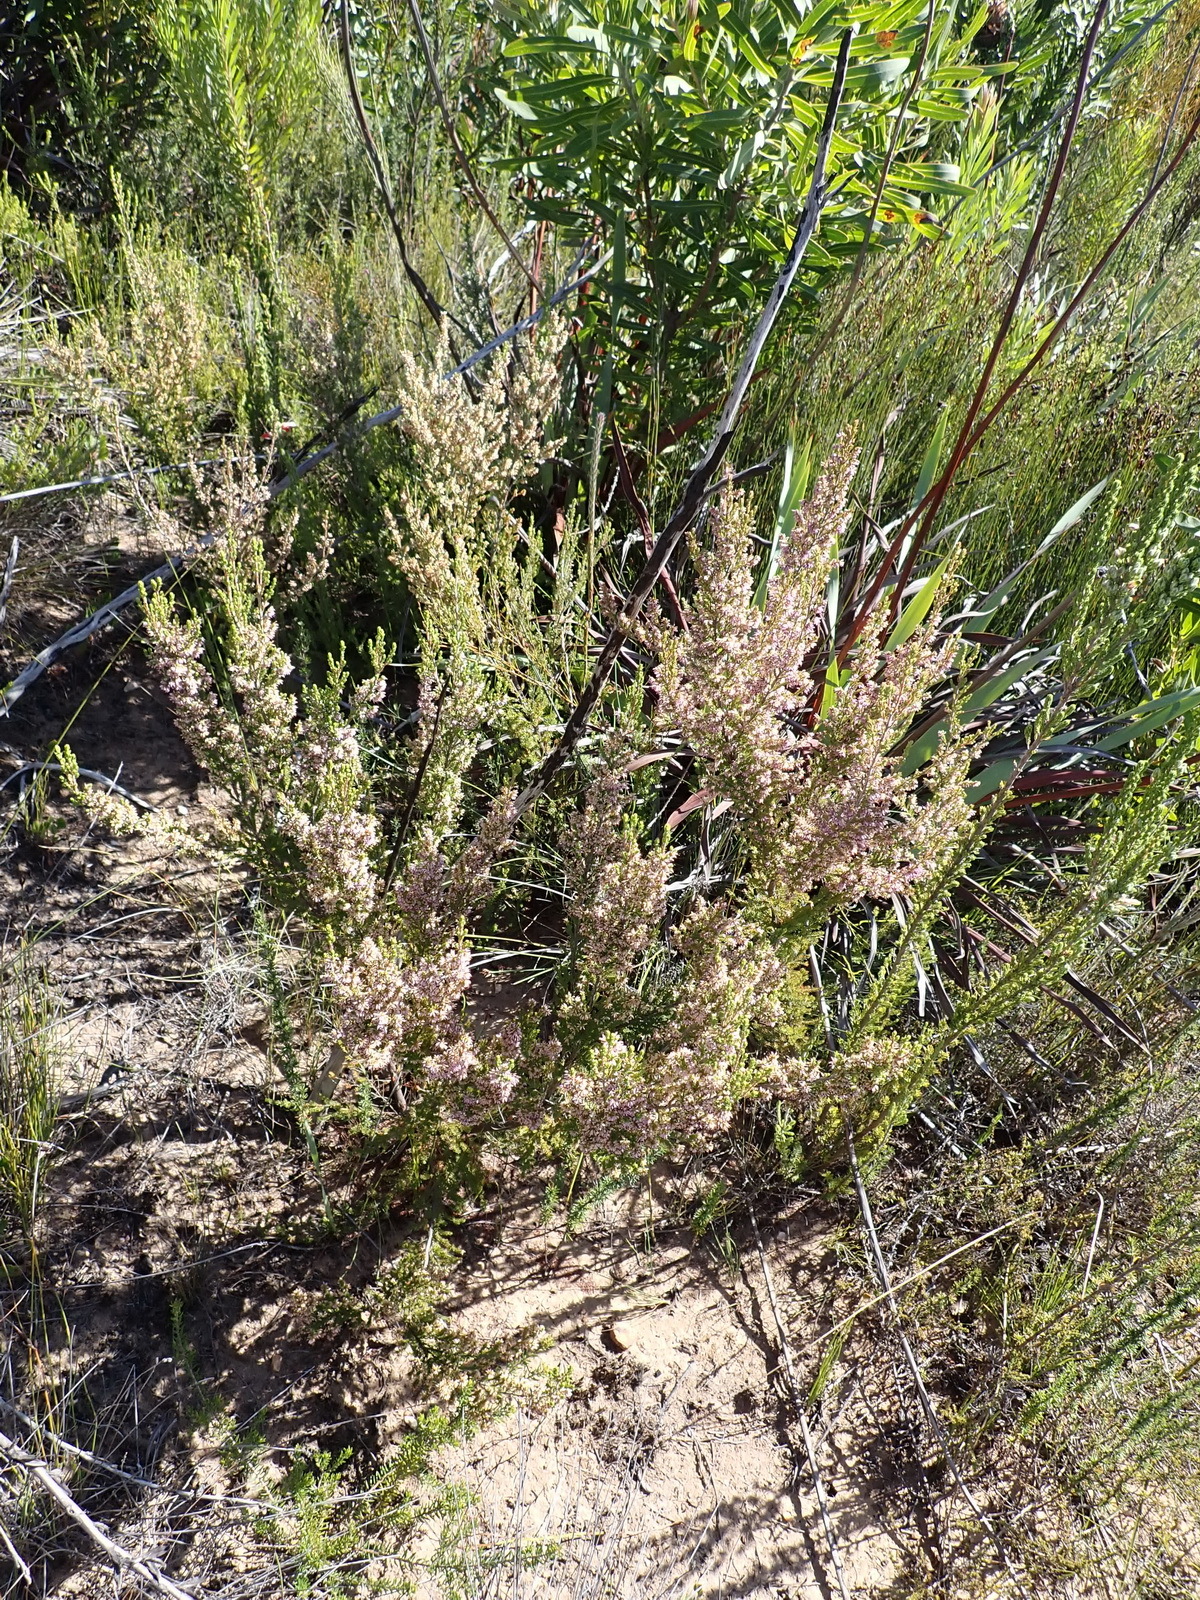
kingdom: Plantae
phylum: Tracheophyta
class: Magnoliopsida
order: Ericales
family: Ericaceae
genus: Erica
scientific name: Erica uberiflora
